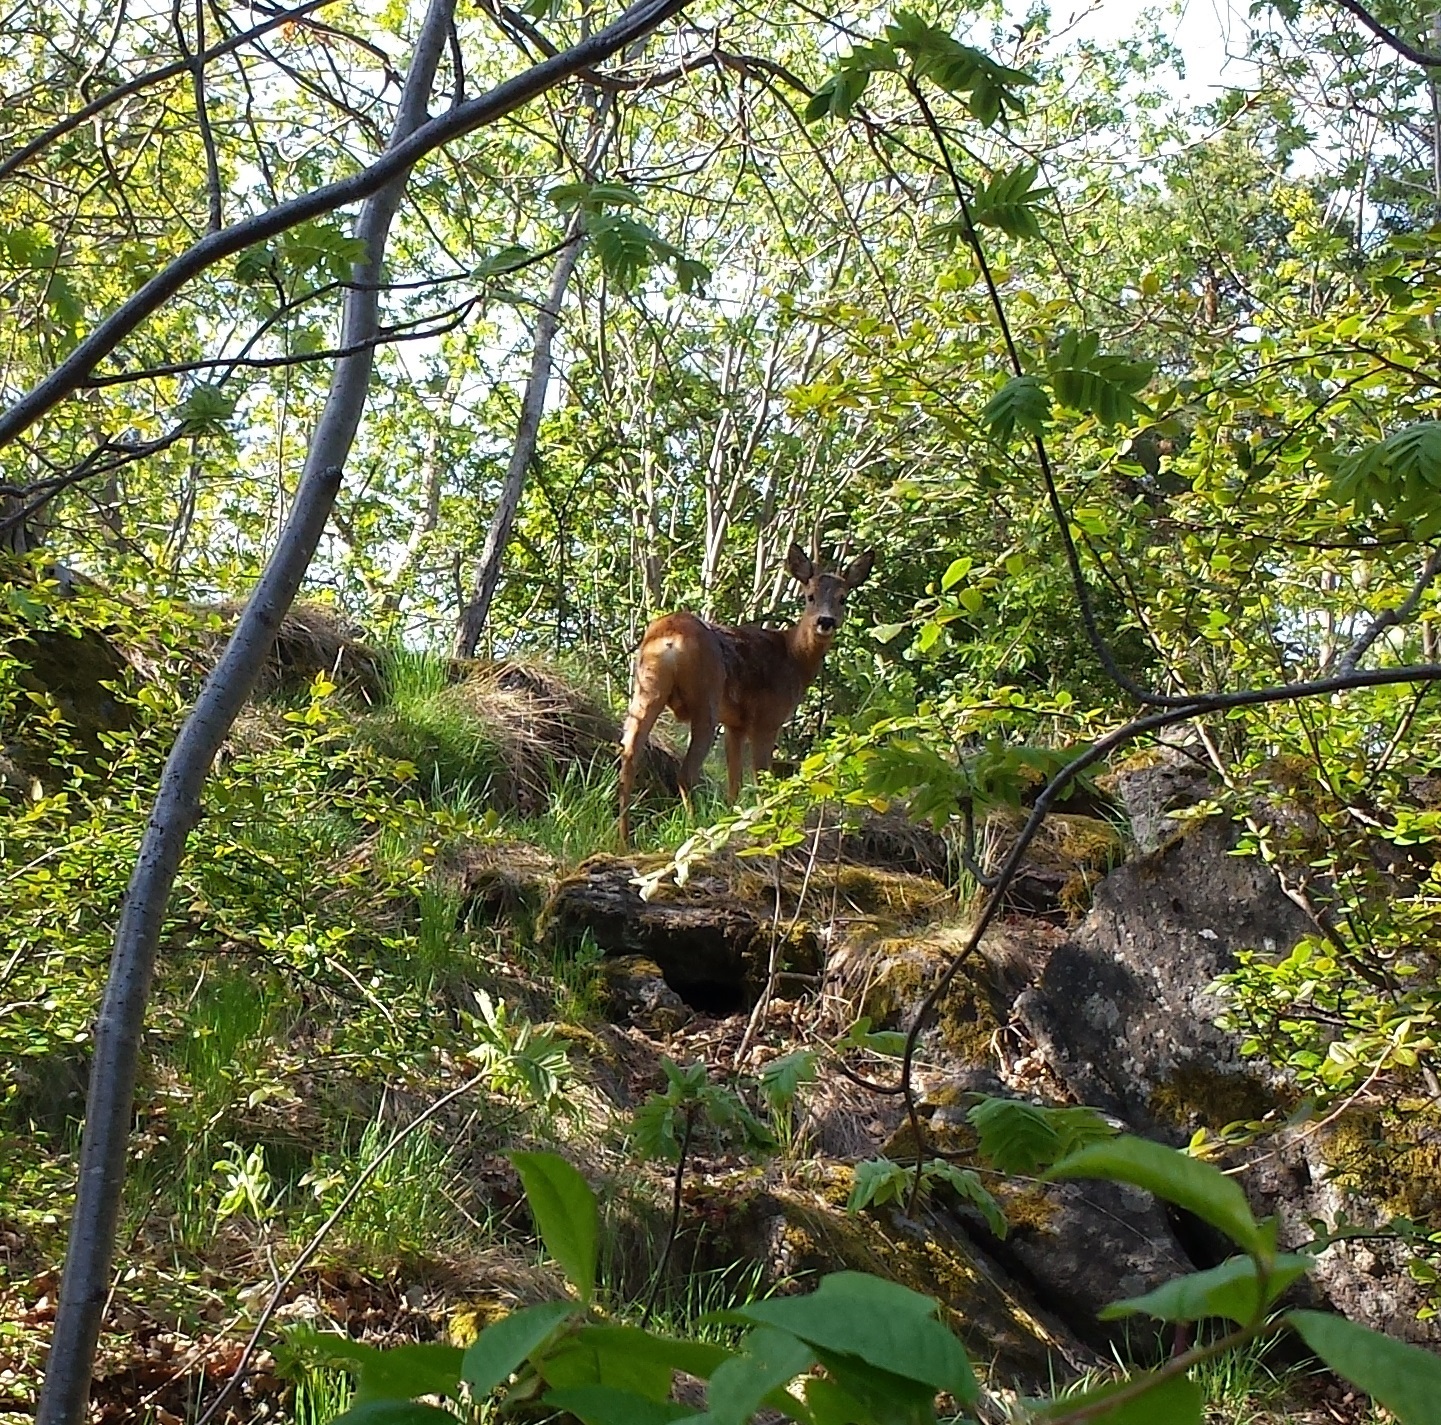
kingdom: Animalia
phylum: Chordata
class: Mammalia
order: Artiodactyla
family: Cervidae
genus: Capreolus
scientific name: Capreolus capreolus
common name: Western roe deer
